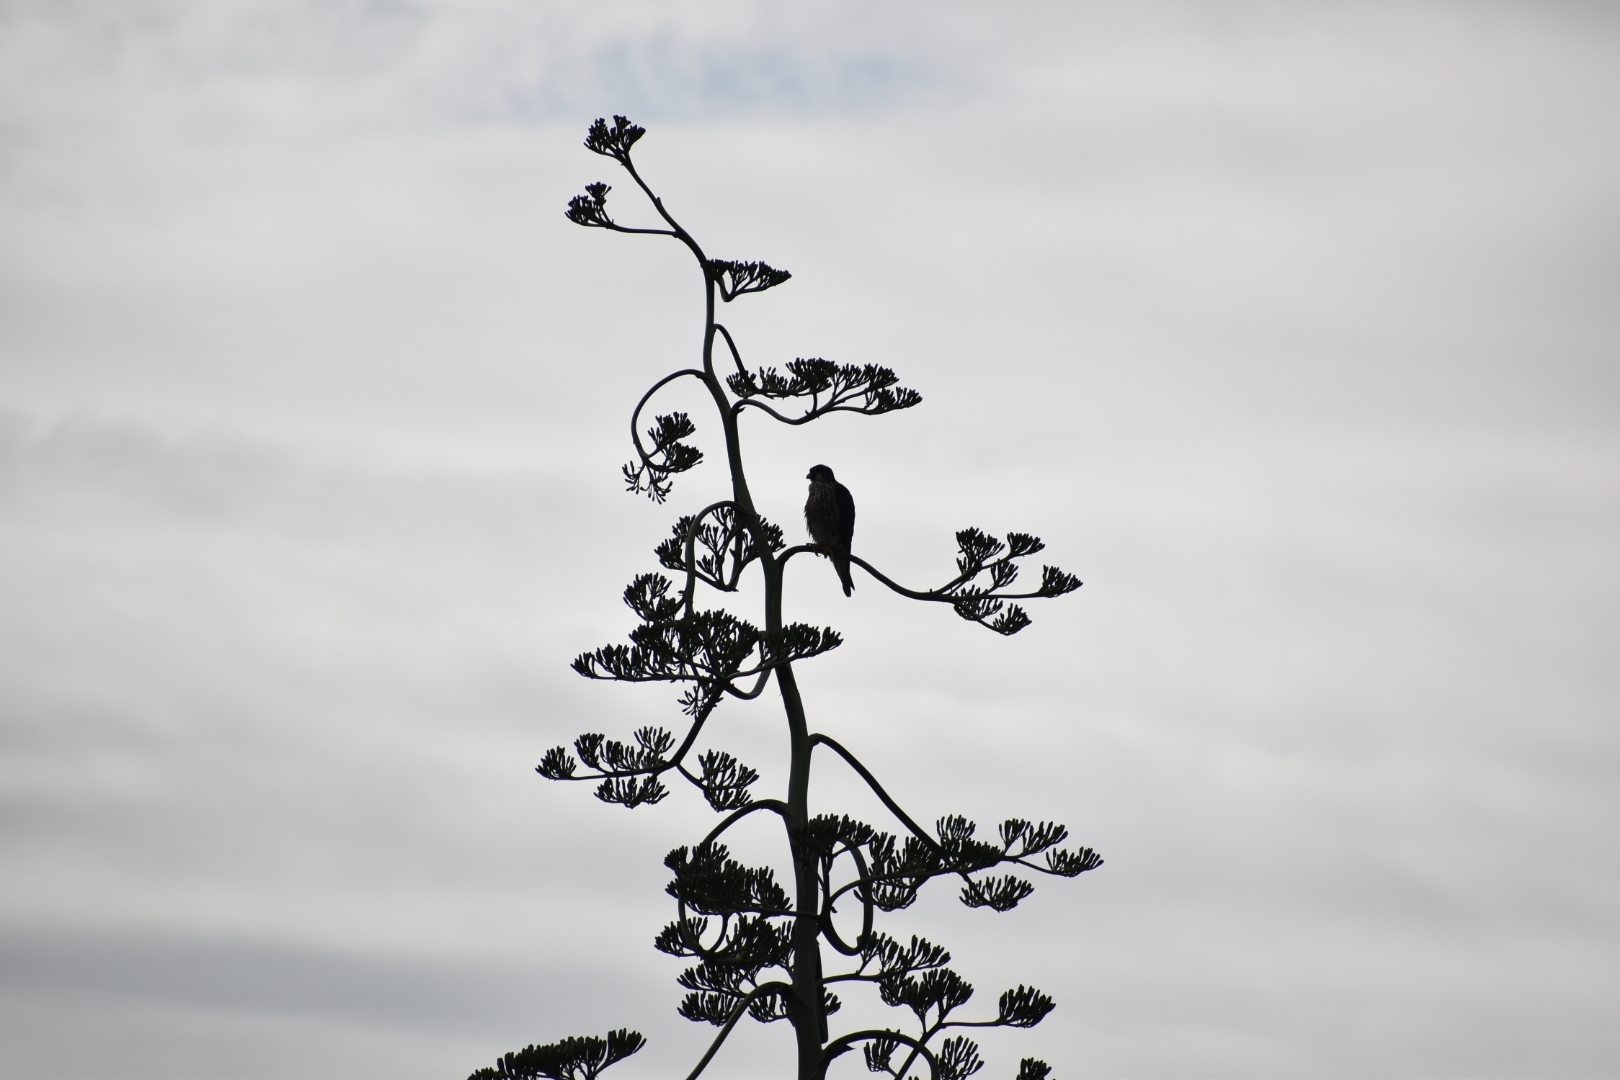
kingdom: Animalia
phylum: Chordata
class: Aves
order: Falconiformes
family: Falconidae
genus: Falco
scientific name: Falco peregrinus
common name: Peregrine falcon
